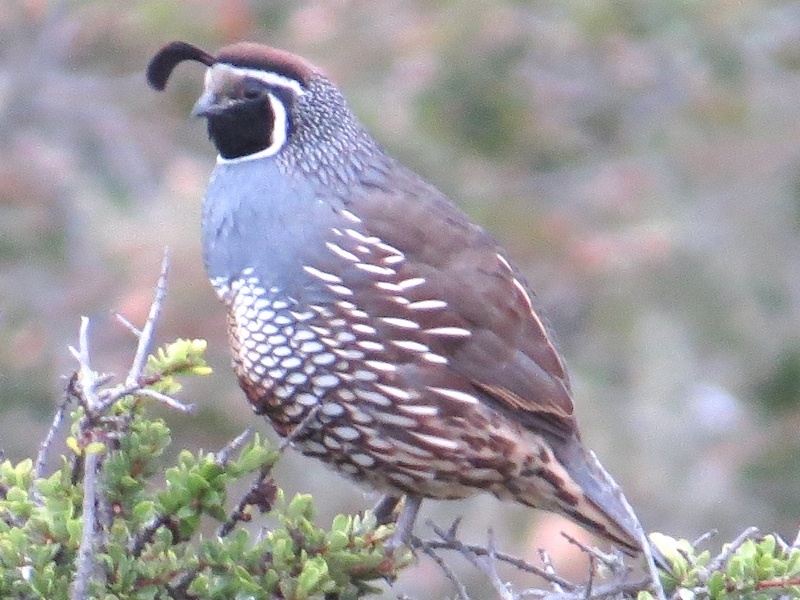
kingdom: Animalia
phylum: Chordata
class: Aves
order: Galliformes
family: Odontophoridae
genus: Callipepla
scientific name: Callipepla californica
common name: California quail
